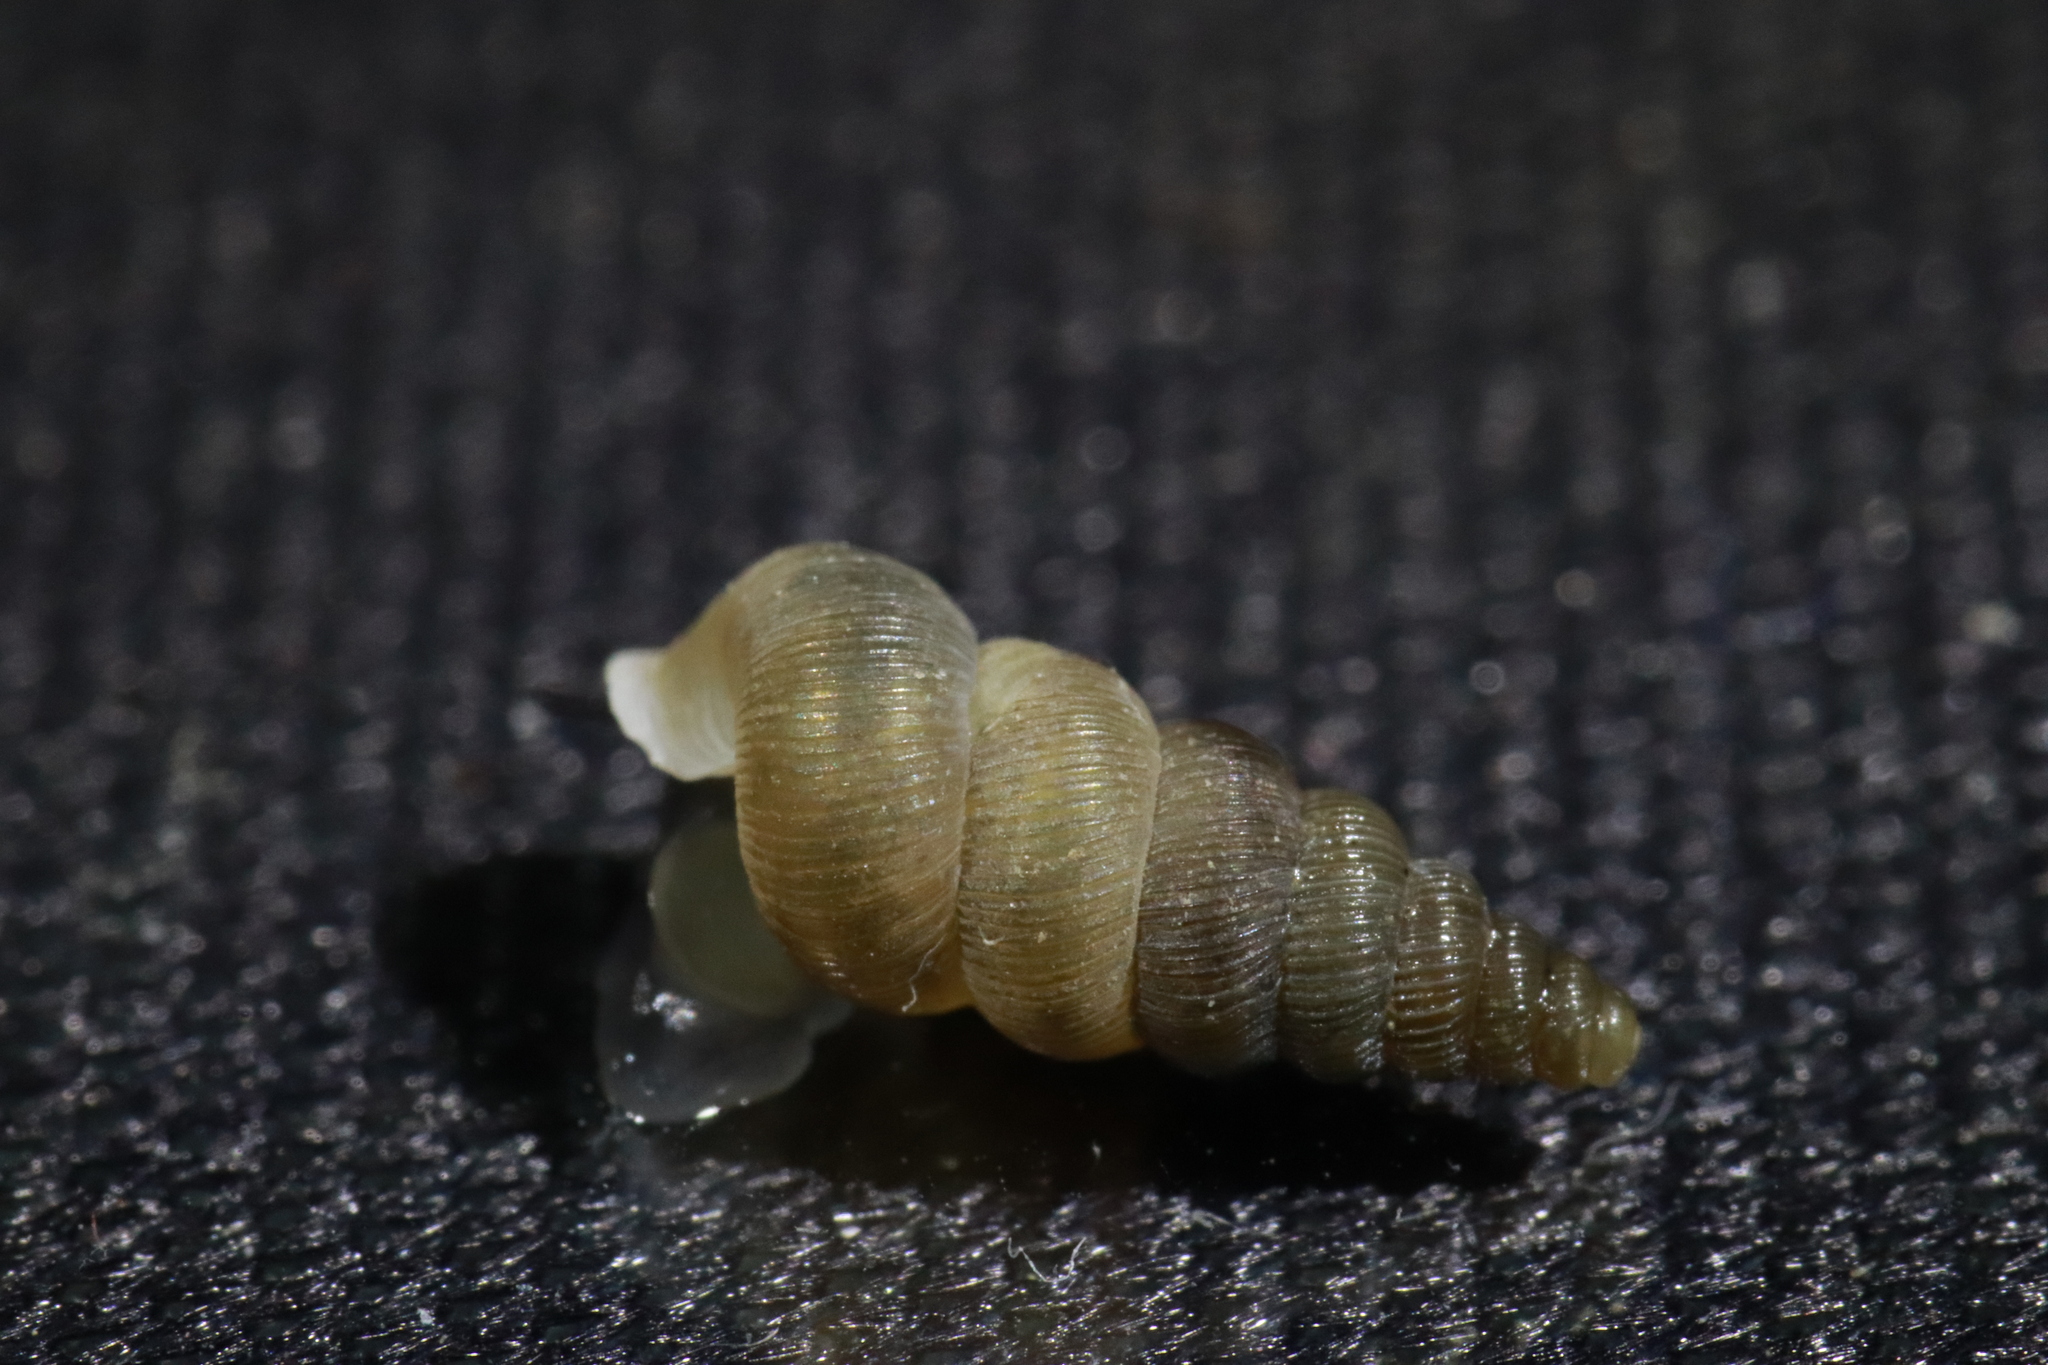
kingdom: Animalia
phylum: Mollusca
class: Gastropoda
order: Architaenioglossa
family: Cochlostomatidae
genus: Cochlostoma
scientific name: Cochlostoma patulum
